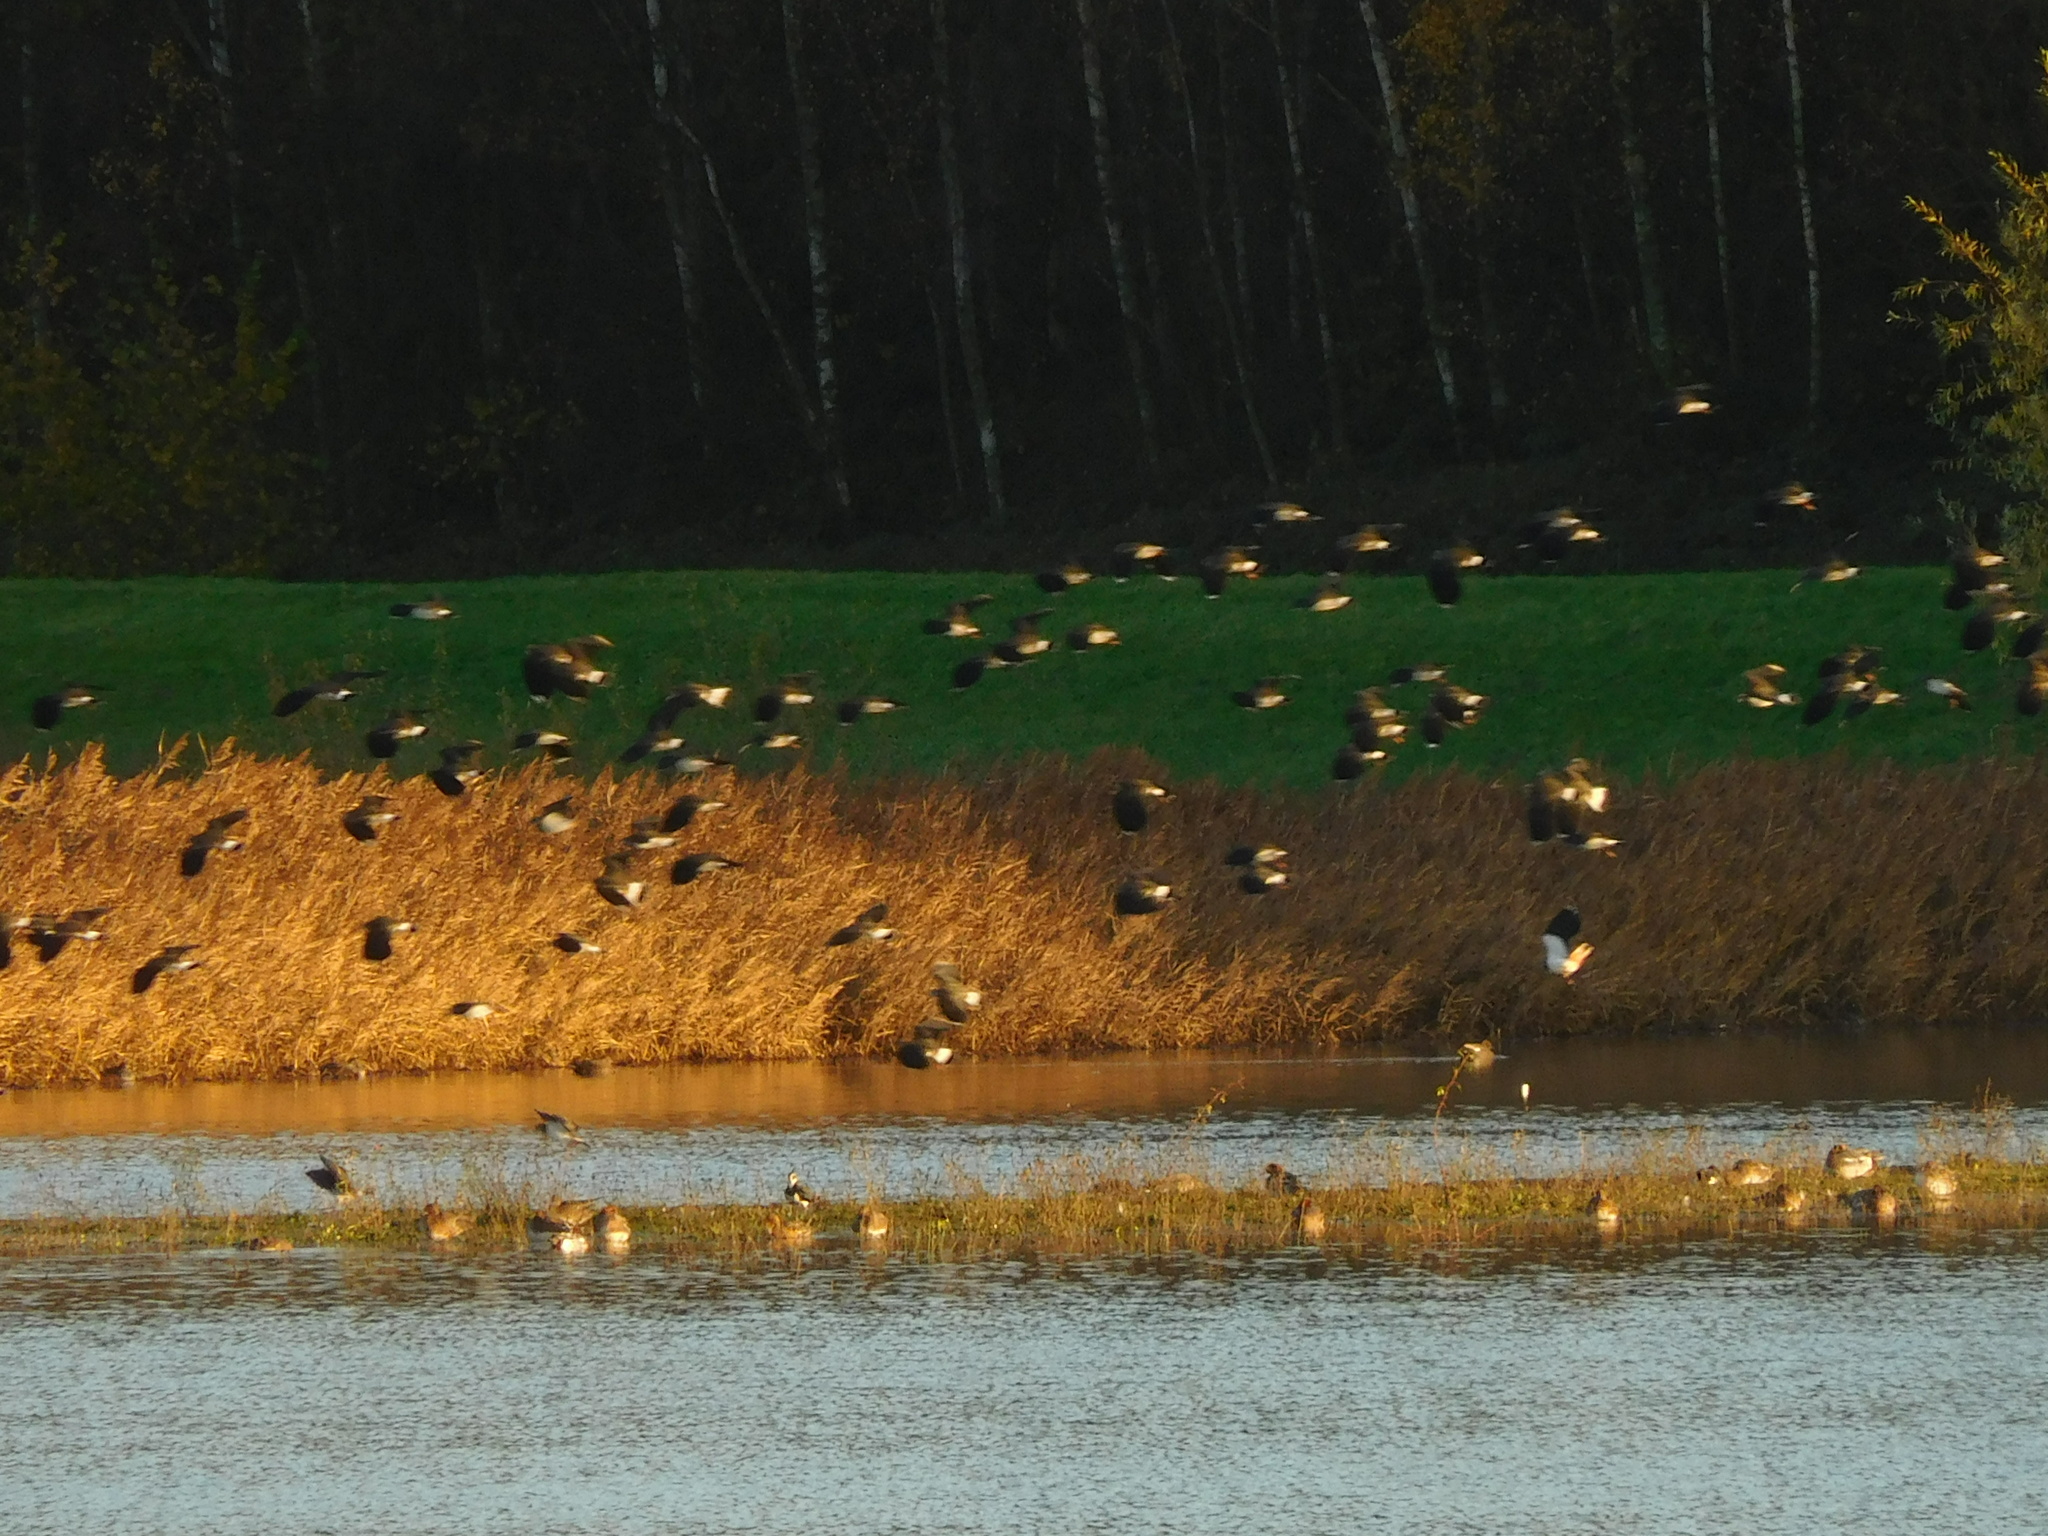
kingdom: Animalia
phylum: Chordata
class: Aves
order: Charadriiformes
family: Charadriidae
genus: Vanellus
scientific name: Vanellus vanellus
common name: Northern lapwing
